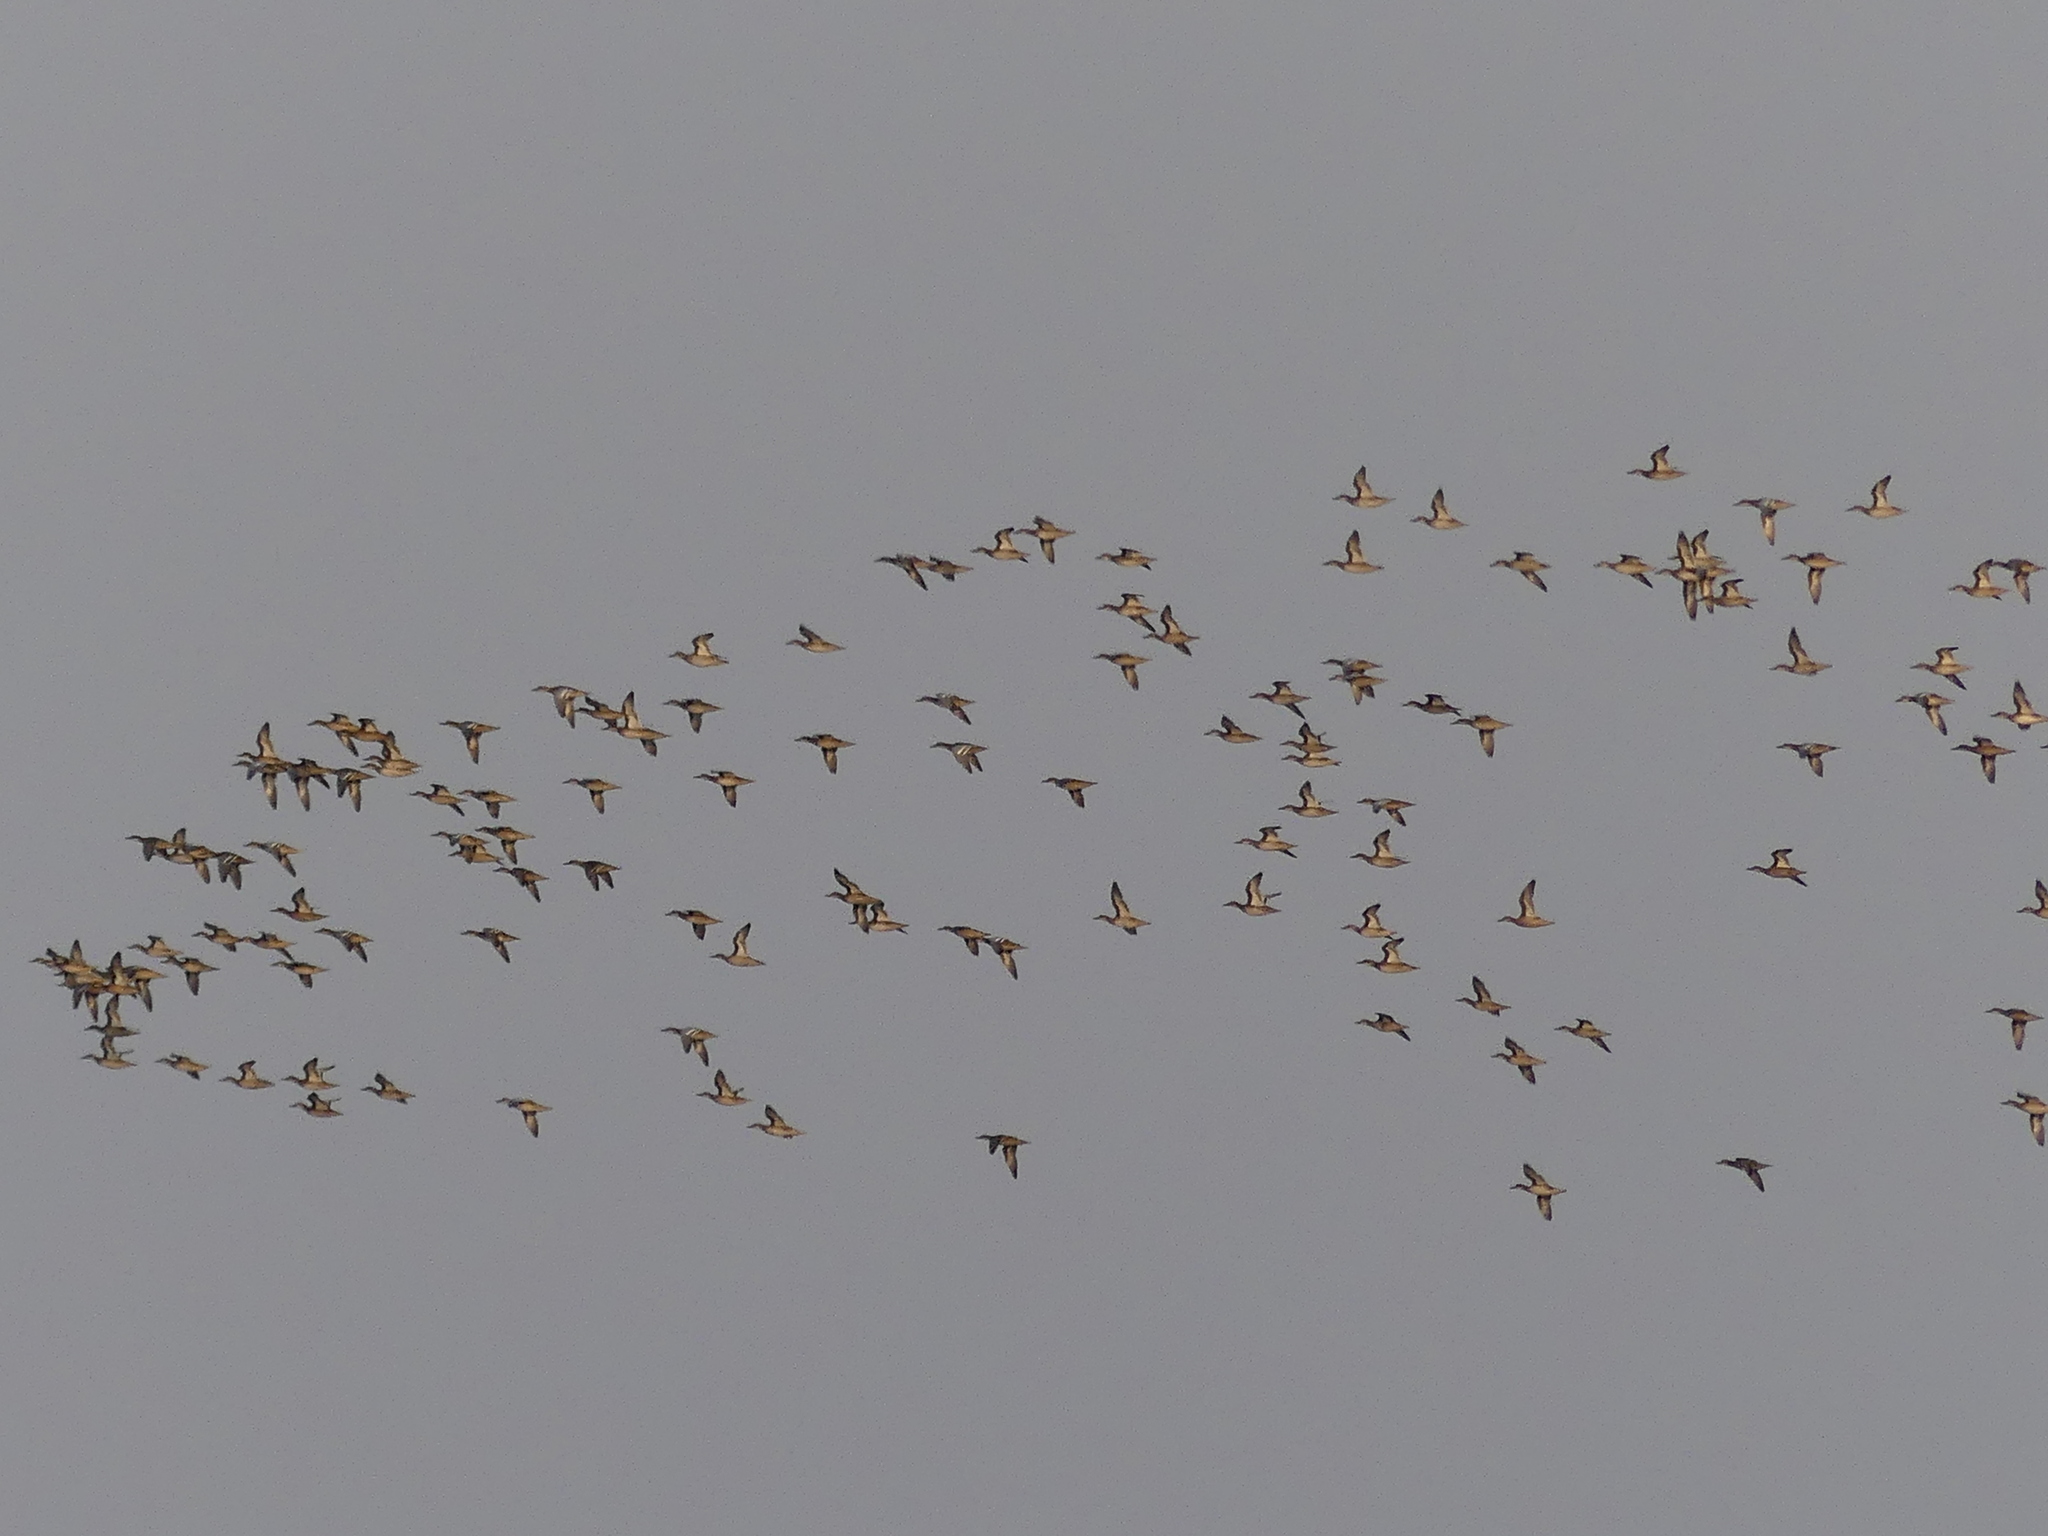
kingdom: Animalia
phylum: Chordata
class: Aves
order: Anseriformes
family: Anatidae
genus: Spatula
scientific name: Spatula querquedula
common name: Garganey
